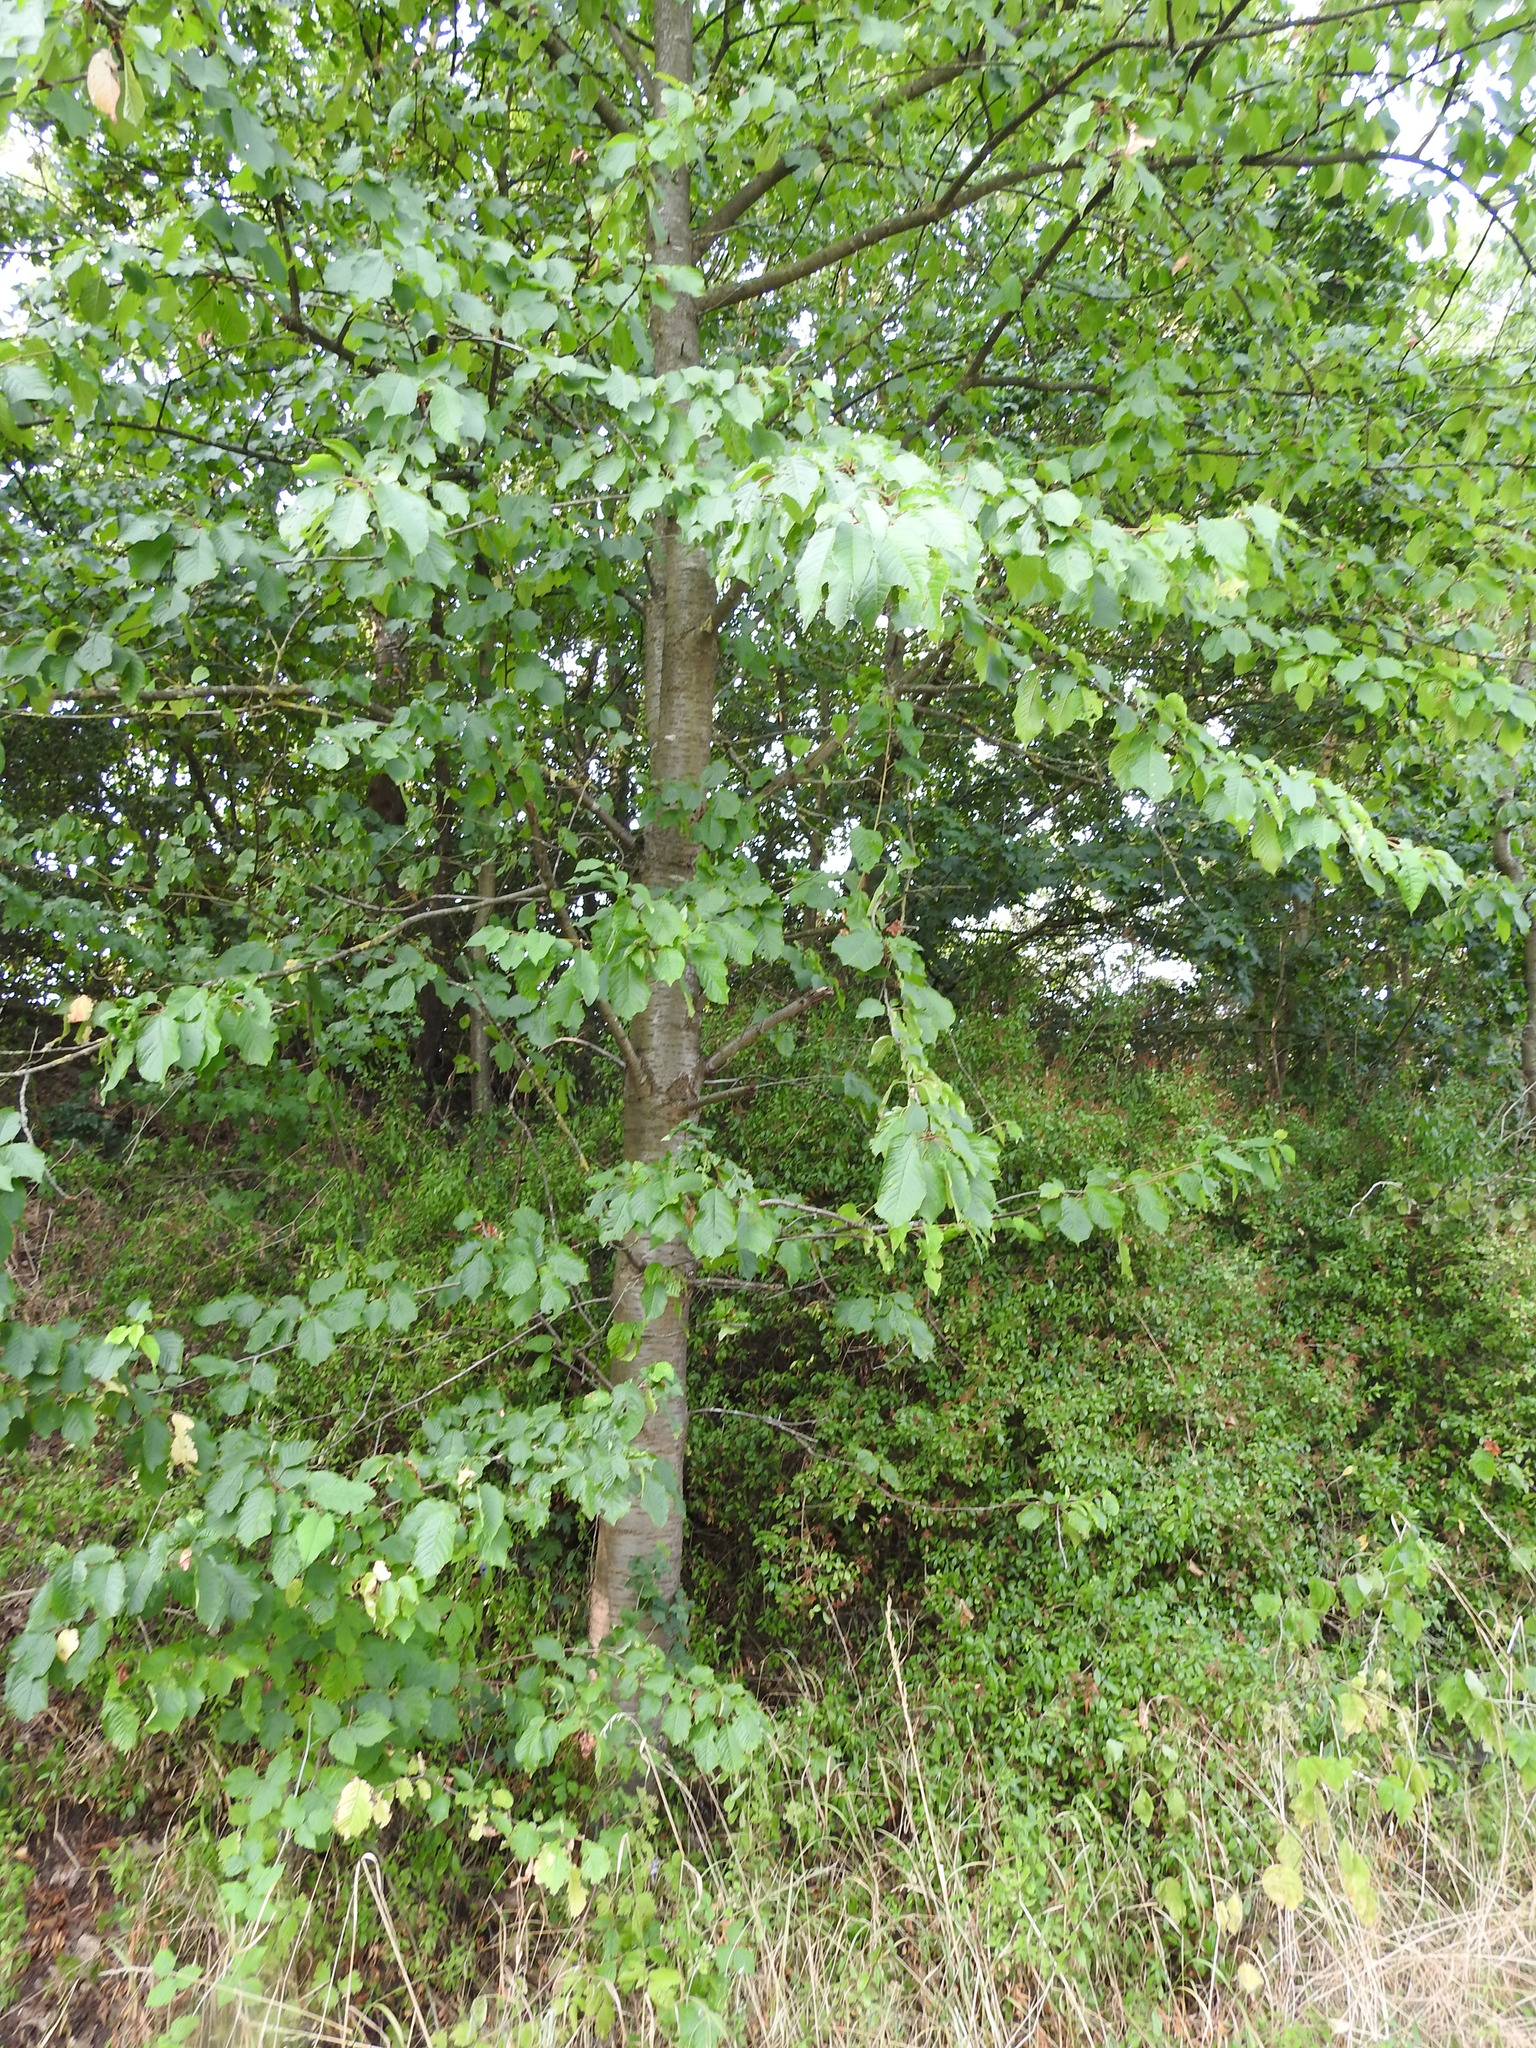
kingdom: Plantae
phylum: Tracheophyta
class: Magnoliopsida
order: Rosales
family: Rosaceae
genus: Prunus
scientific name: Prunus avium
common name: Sweet cherry
